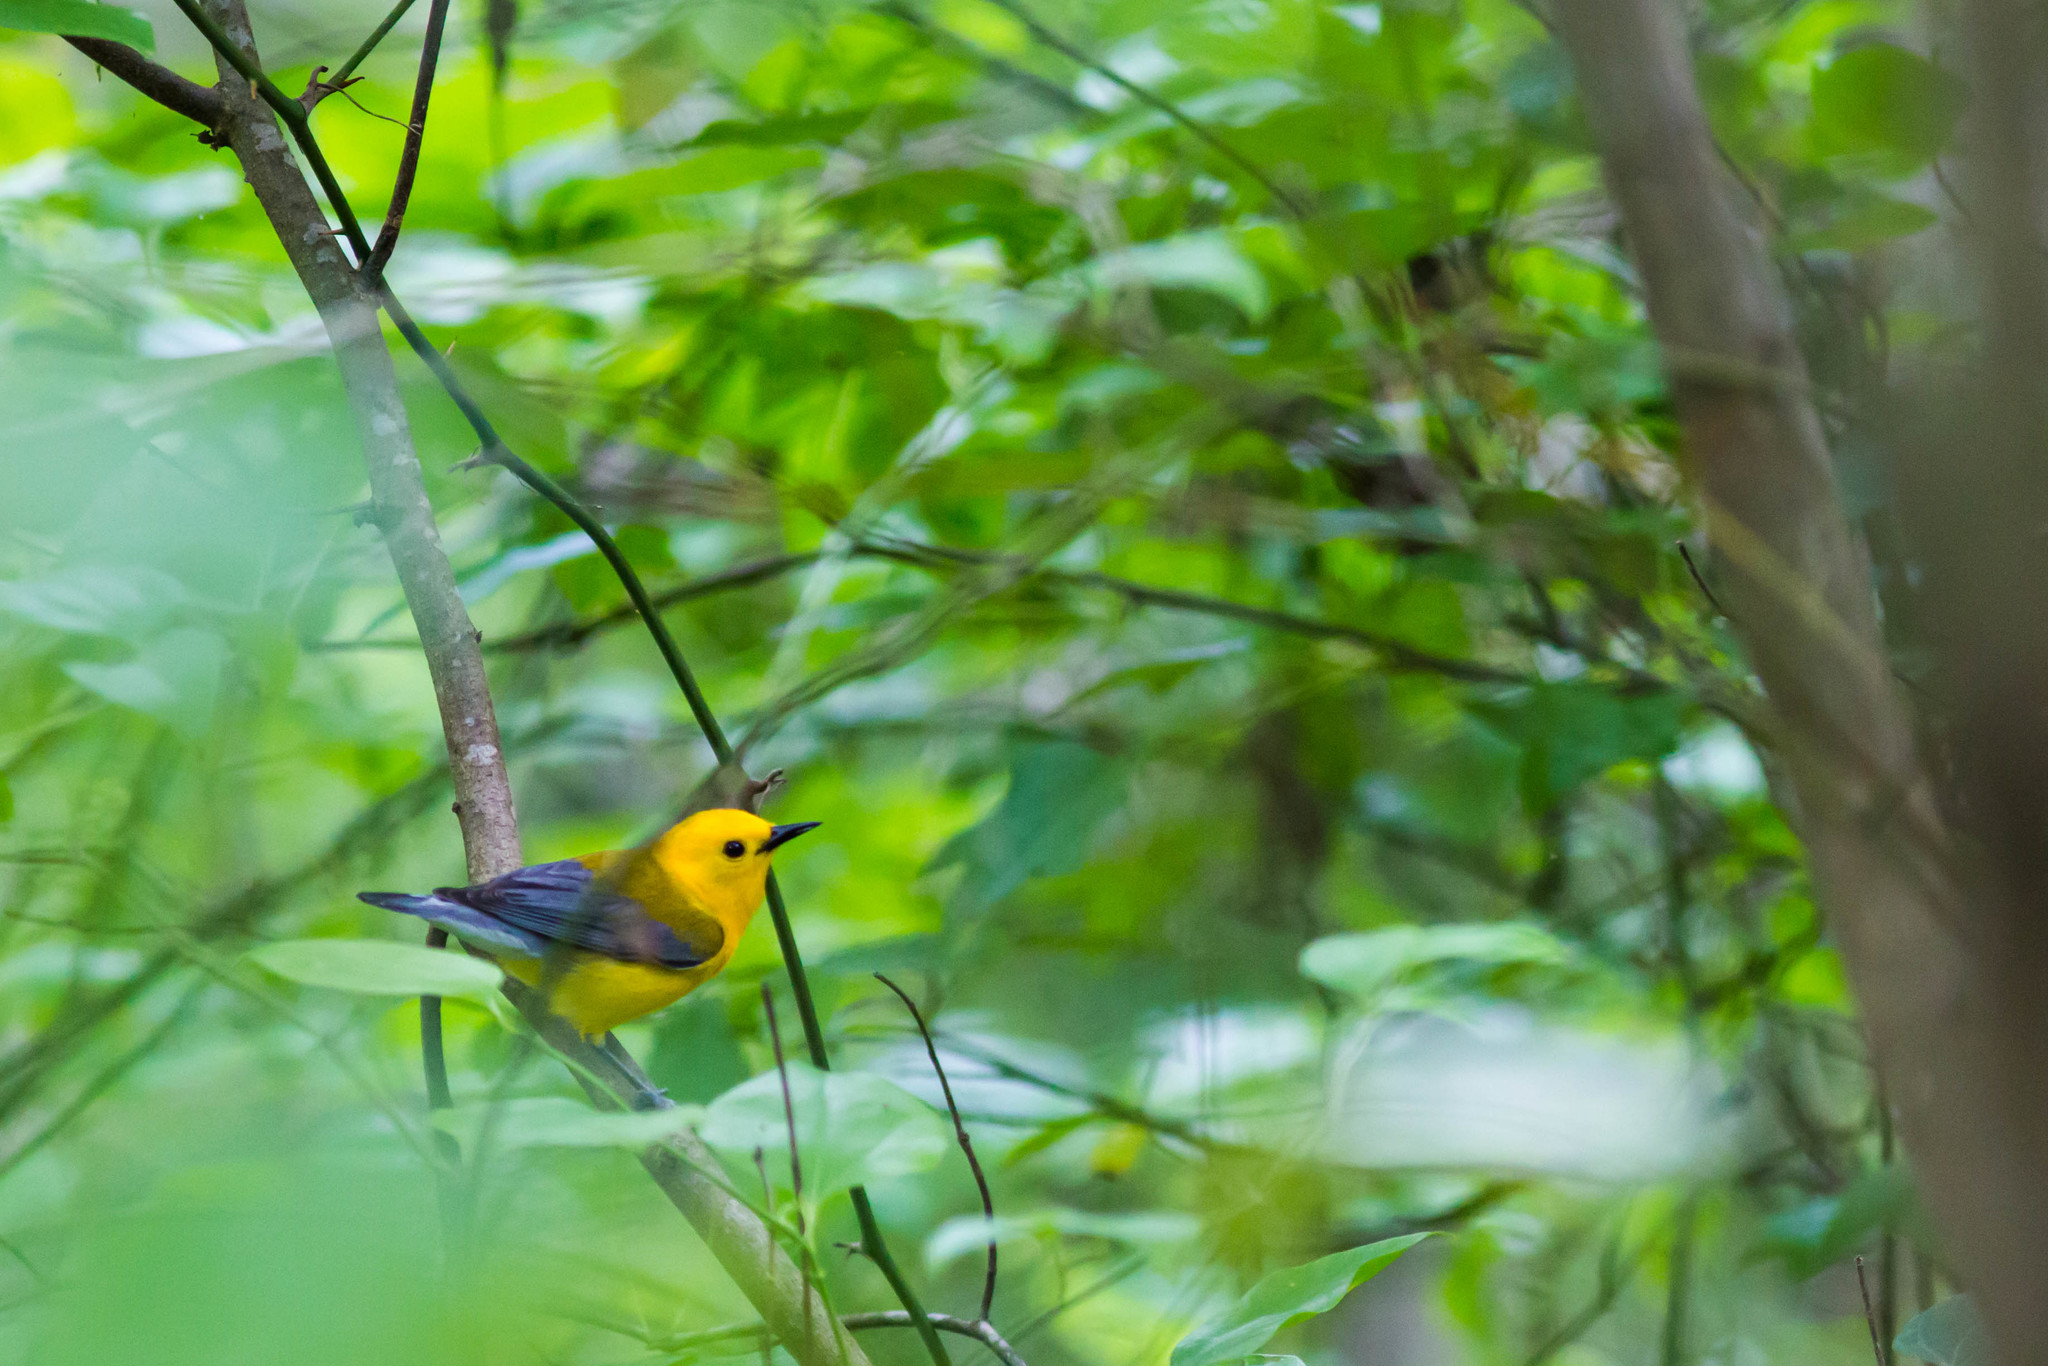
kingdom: Animalia
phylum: Chordata
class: Aves
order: Passeriformes
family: Parulidae
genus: Protonotaria
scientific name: Protonotaria citrea
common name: Prothonotary warbler
